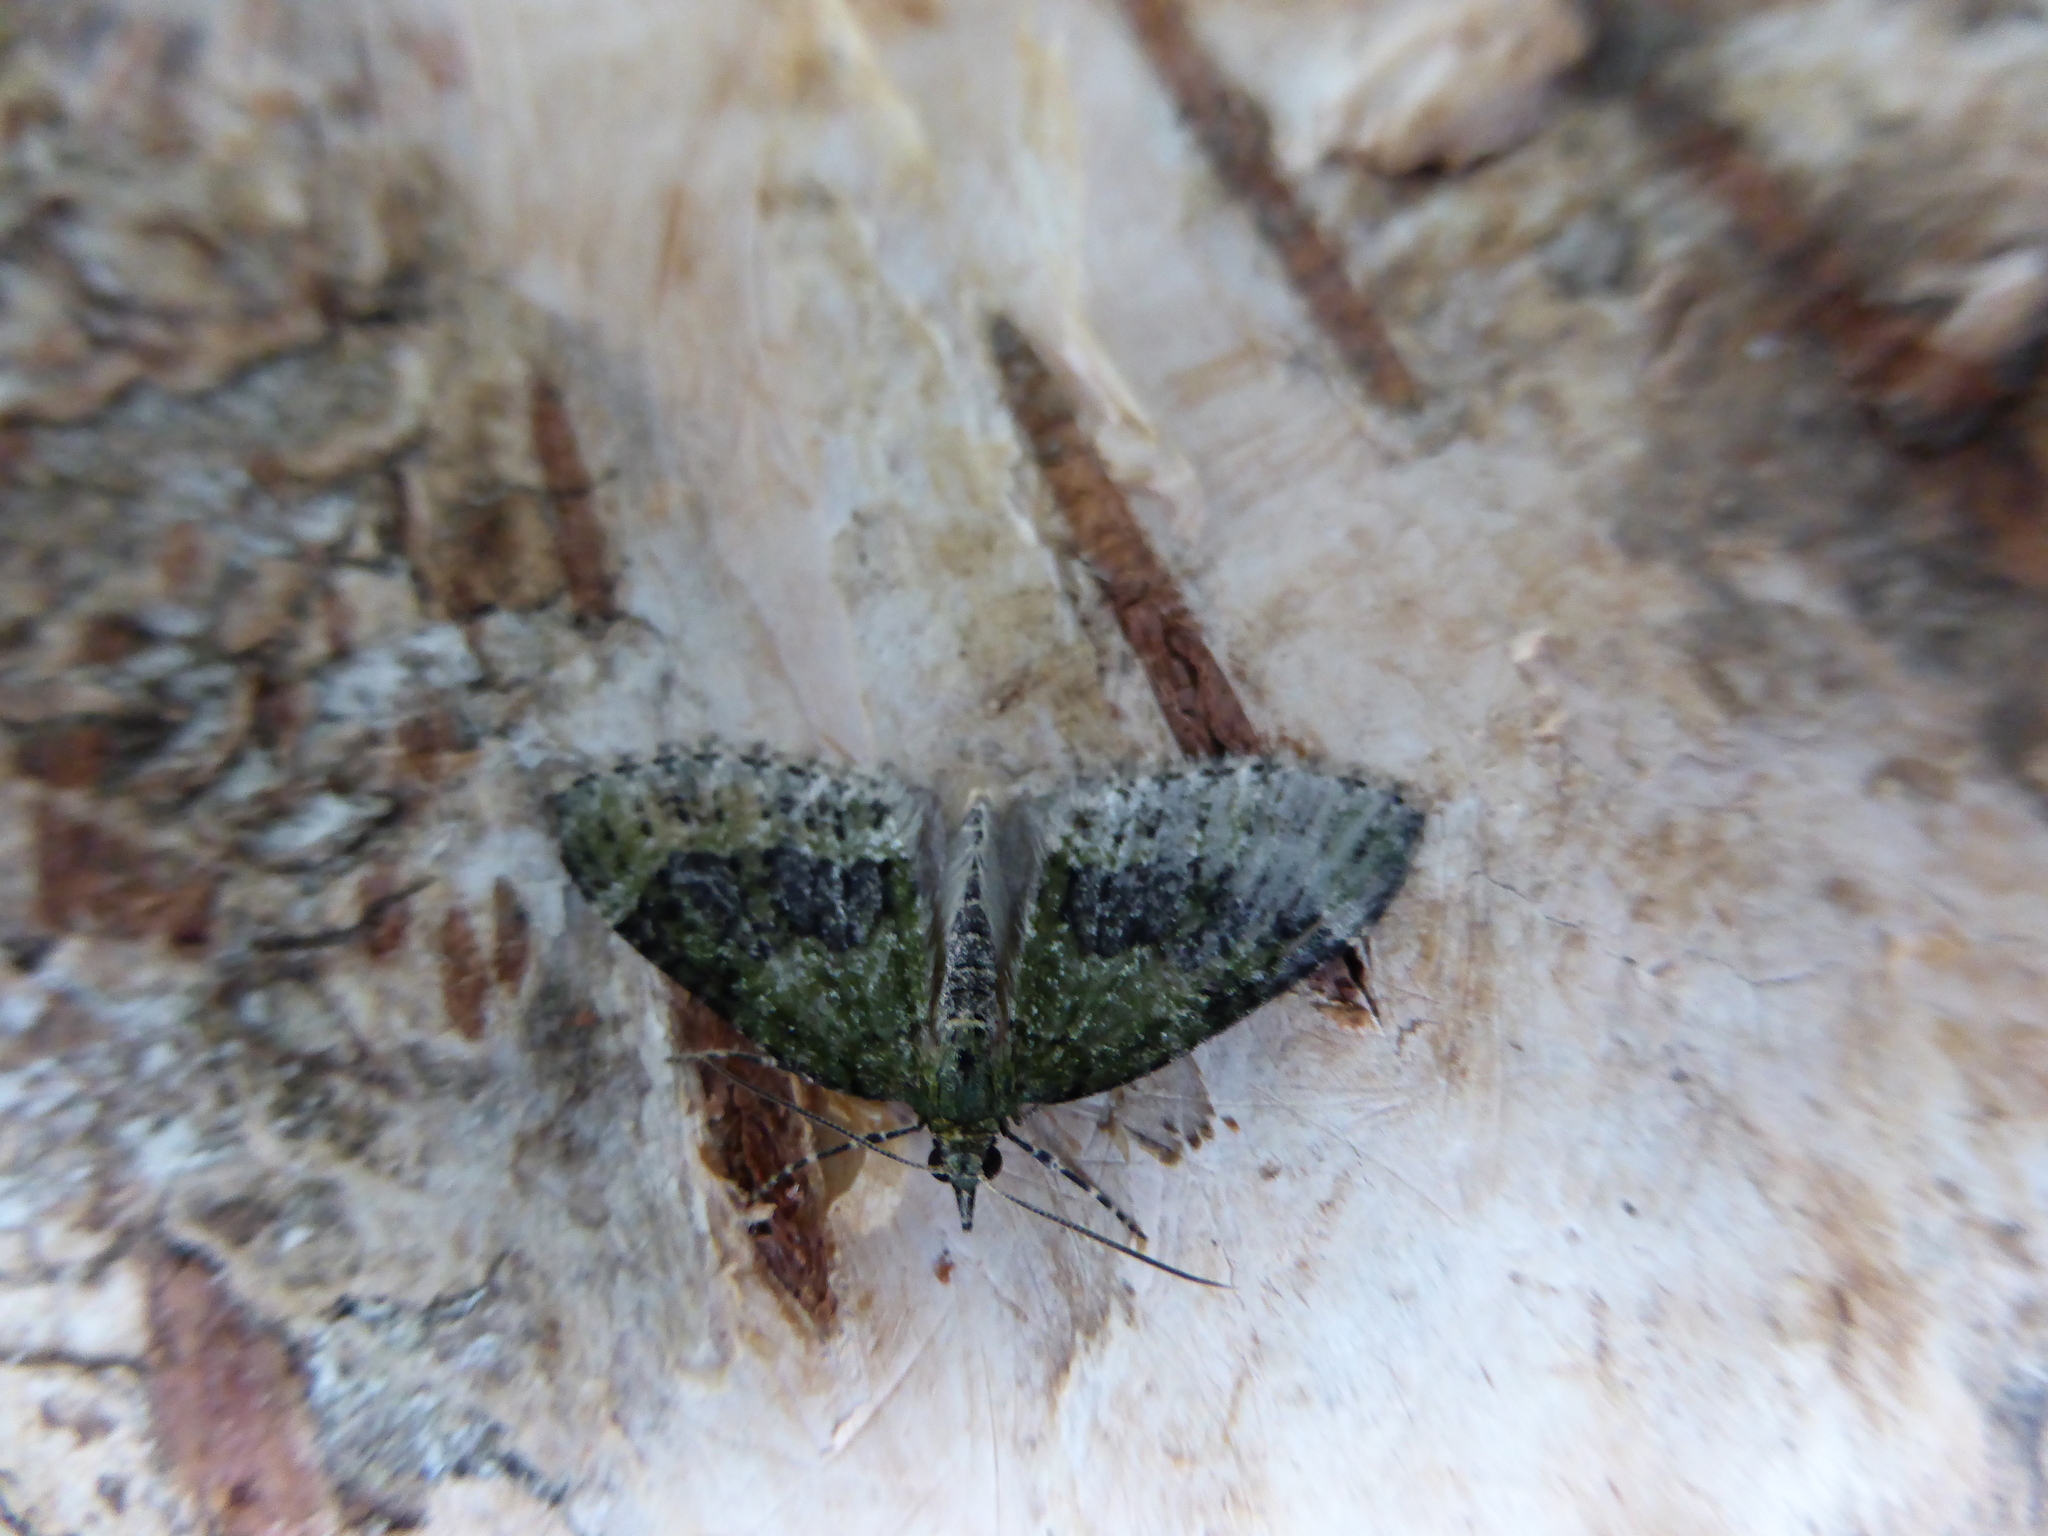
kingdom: Animalia
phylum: Arthropoda
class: Insecta
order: Lepidoptera
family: Geometridae
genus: Acasis
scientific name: Acasis viretata
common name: Yellow-barred brindle
